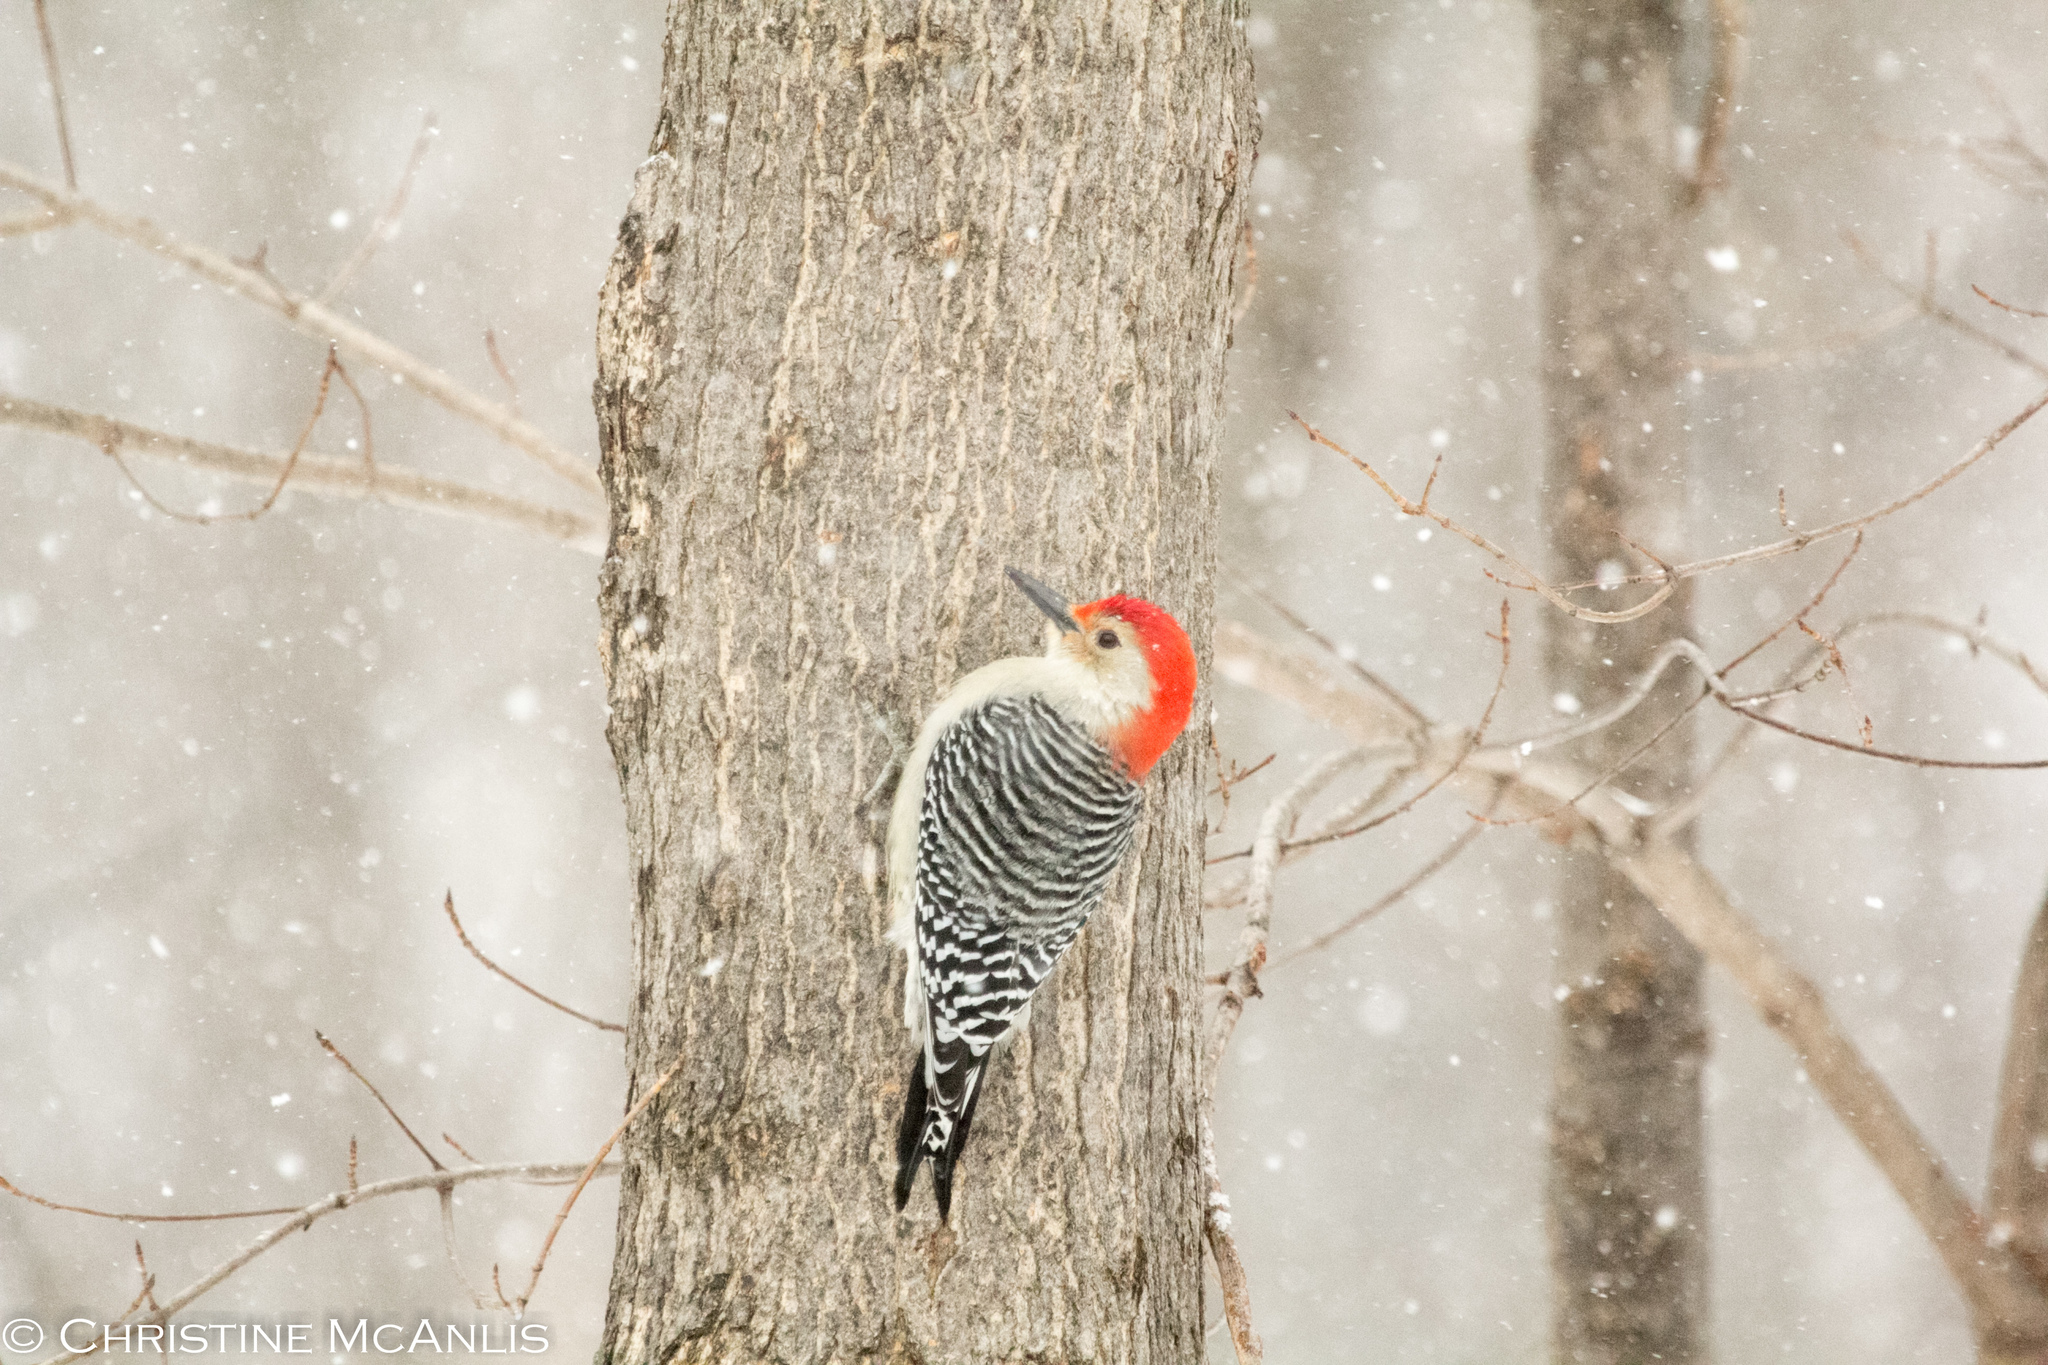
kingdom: Animalia
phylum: Chordata
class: Aves
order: Piciformes
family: Picidae
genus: Melanerpes
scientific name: Melanerpes carolinus
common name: Red-bellied woodpecker
